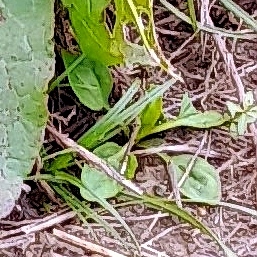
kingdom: Plantae
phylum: Tracheophyta
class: Magnoliopsida
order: Lamiales
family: Plantaginaceae
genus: Plantago
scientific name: Plantago major
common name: Common plantain
